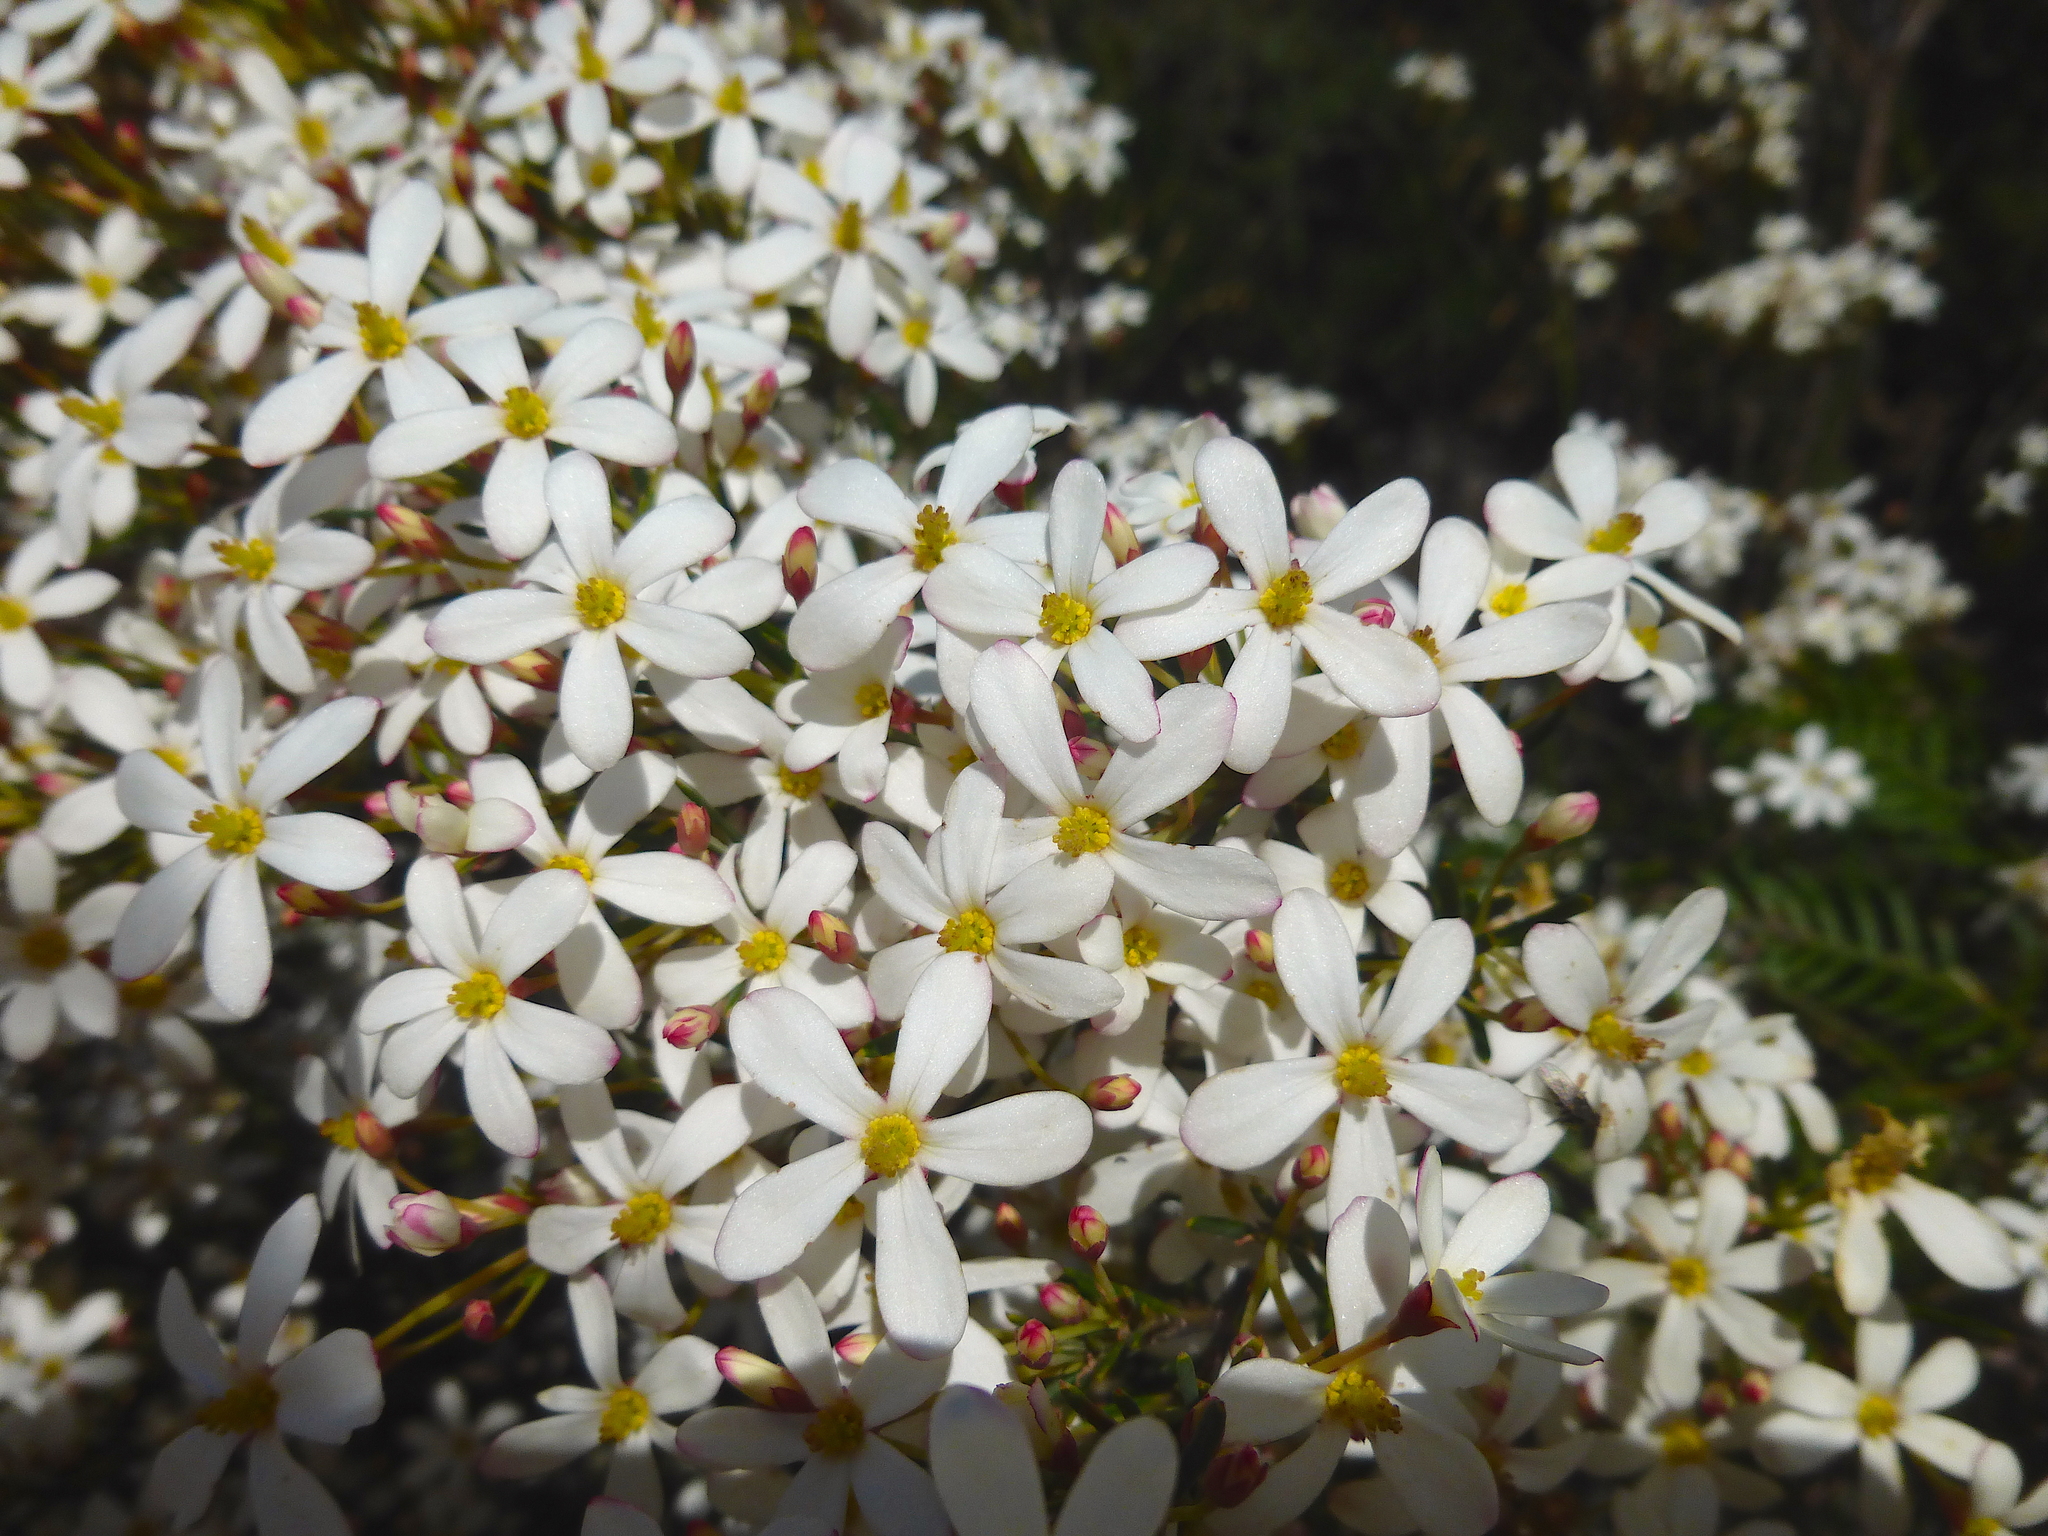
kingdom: Plantae
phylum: Tracheophyta
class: Magnoliopsida
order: Malpighiales
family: Euphorbiaceae
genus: Ricinocarpos
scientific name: Ricinocarpos pinifolius
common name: Weddingbush
